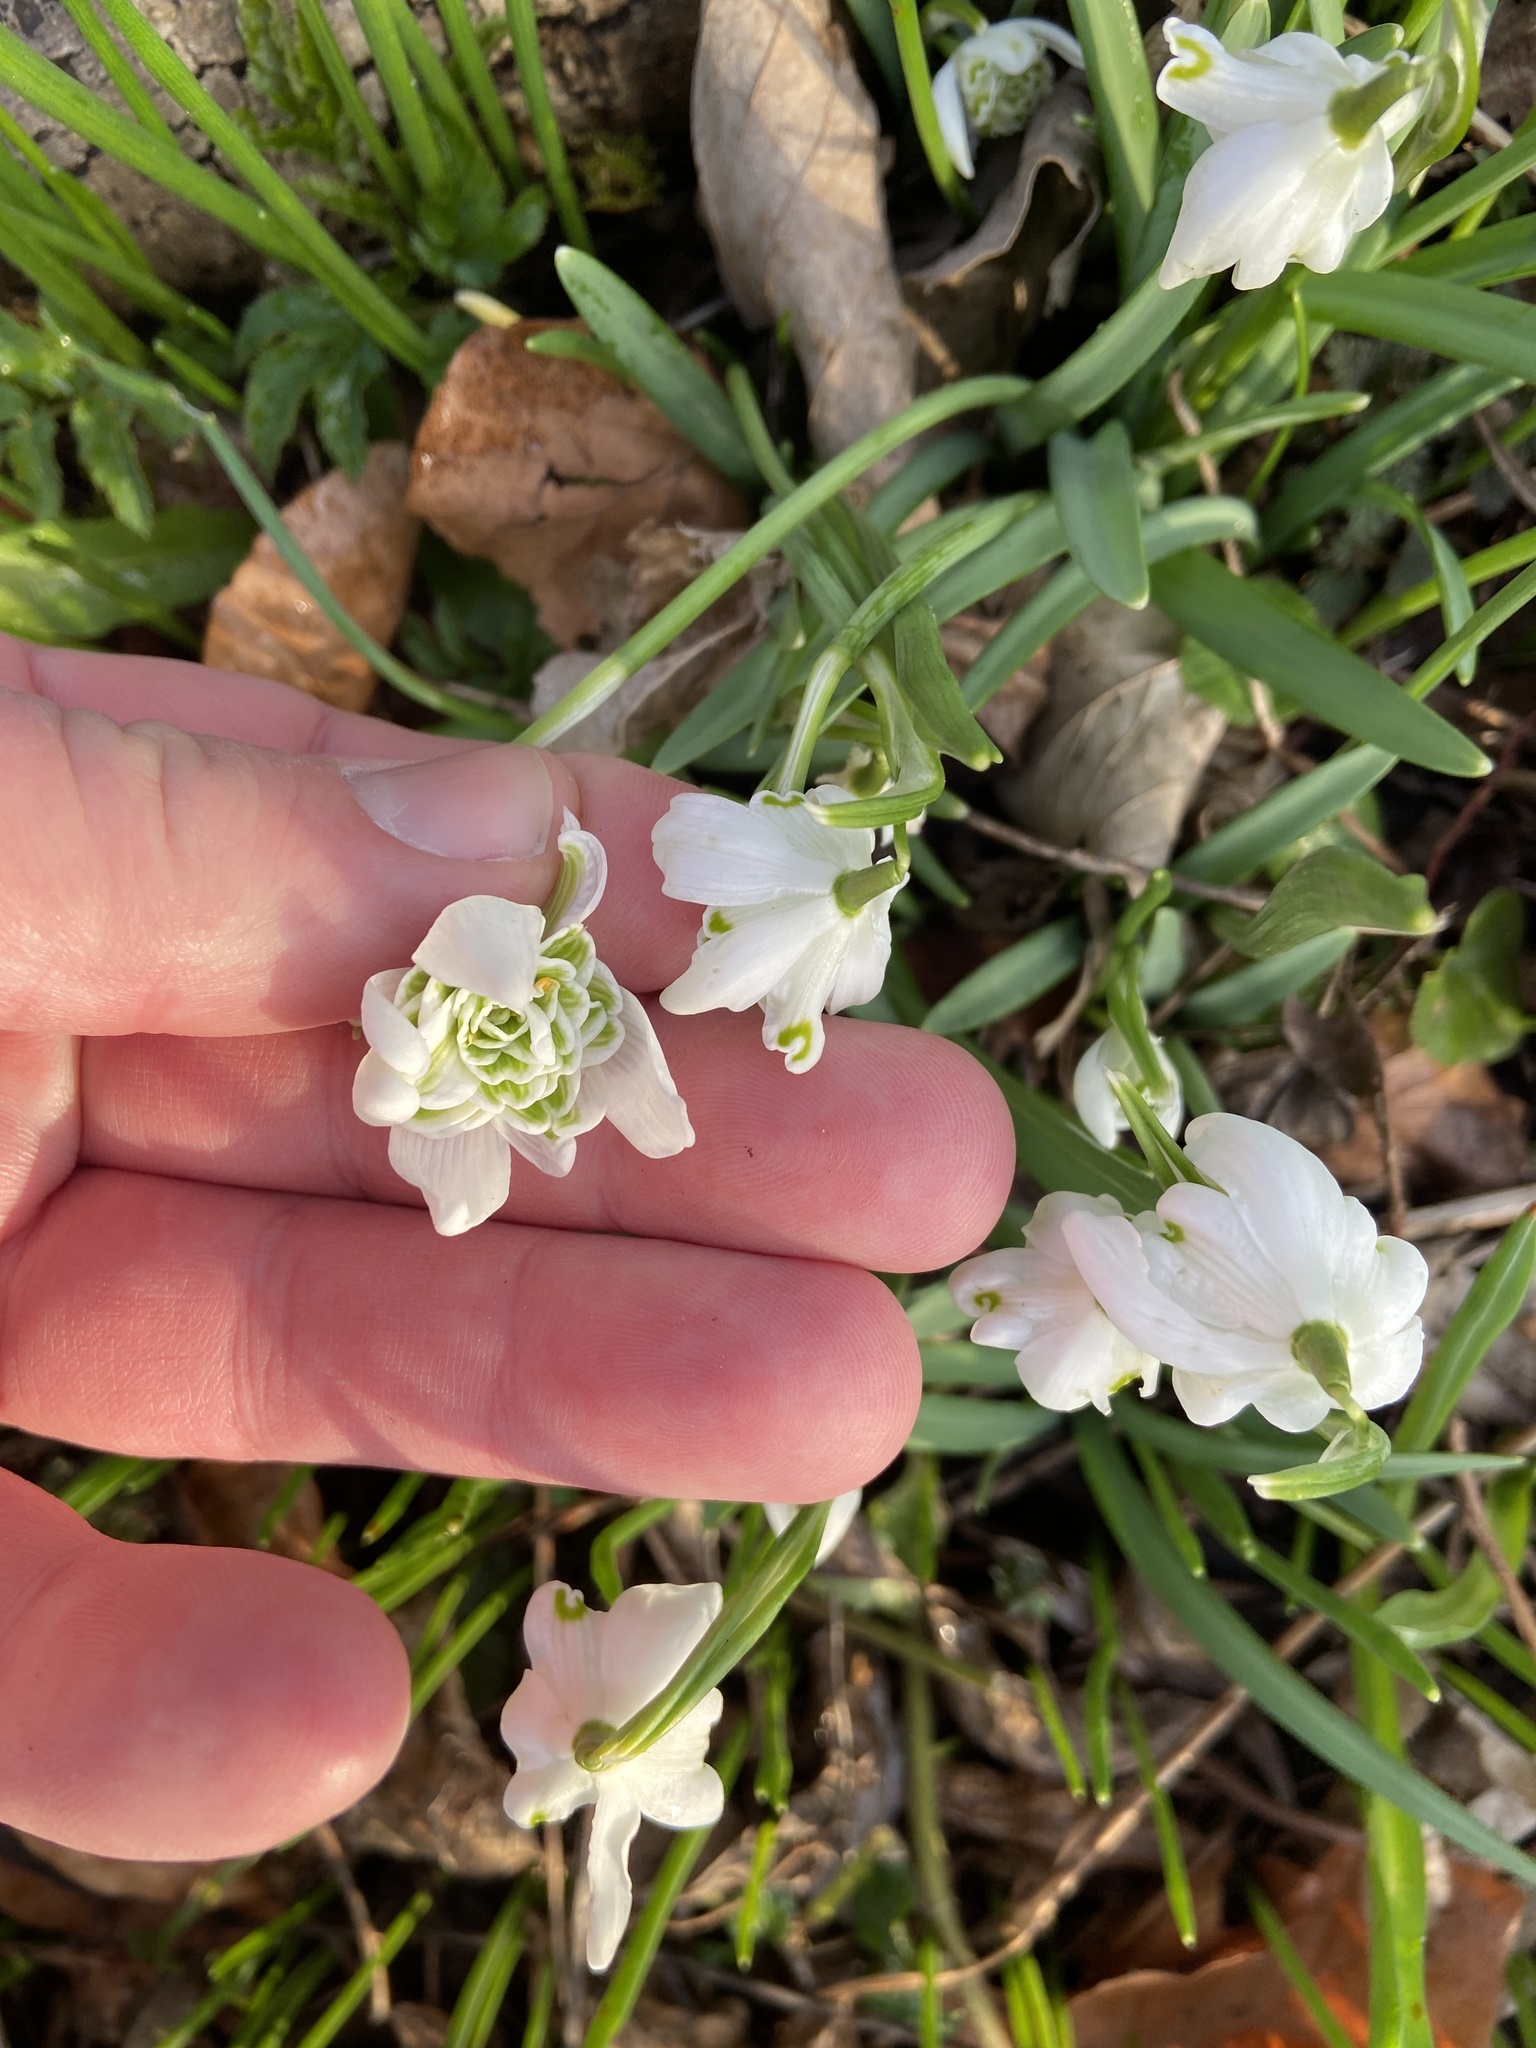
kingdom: Plantae
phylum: Tracheophyta
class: Liliopsida
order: Asparagales
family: Amaryllidaceae
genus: Galanthus
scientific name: Galanthus nivalis
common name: Snowdrop
